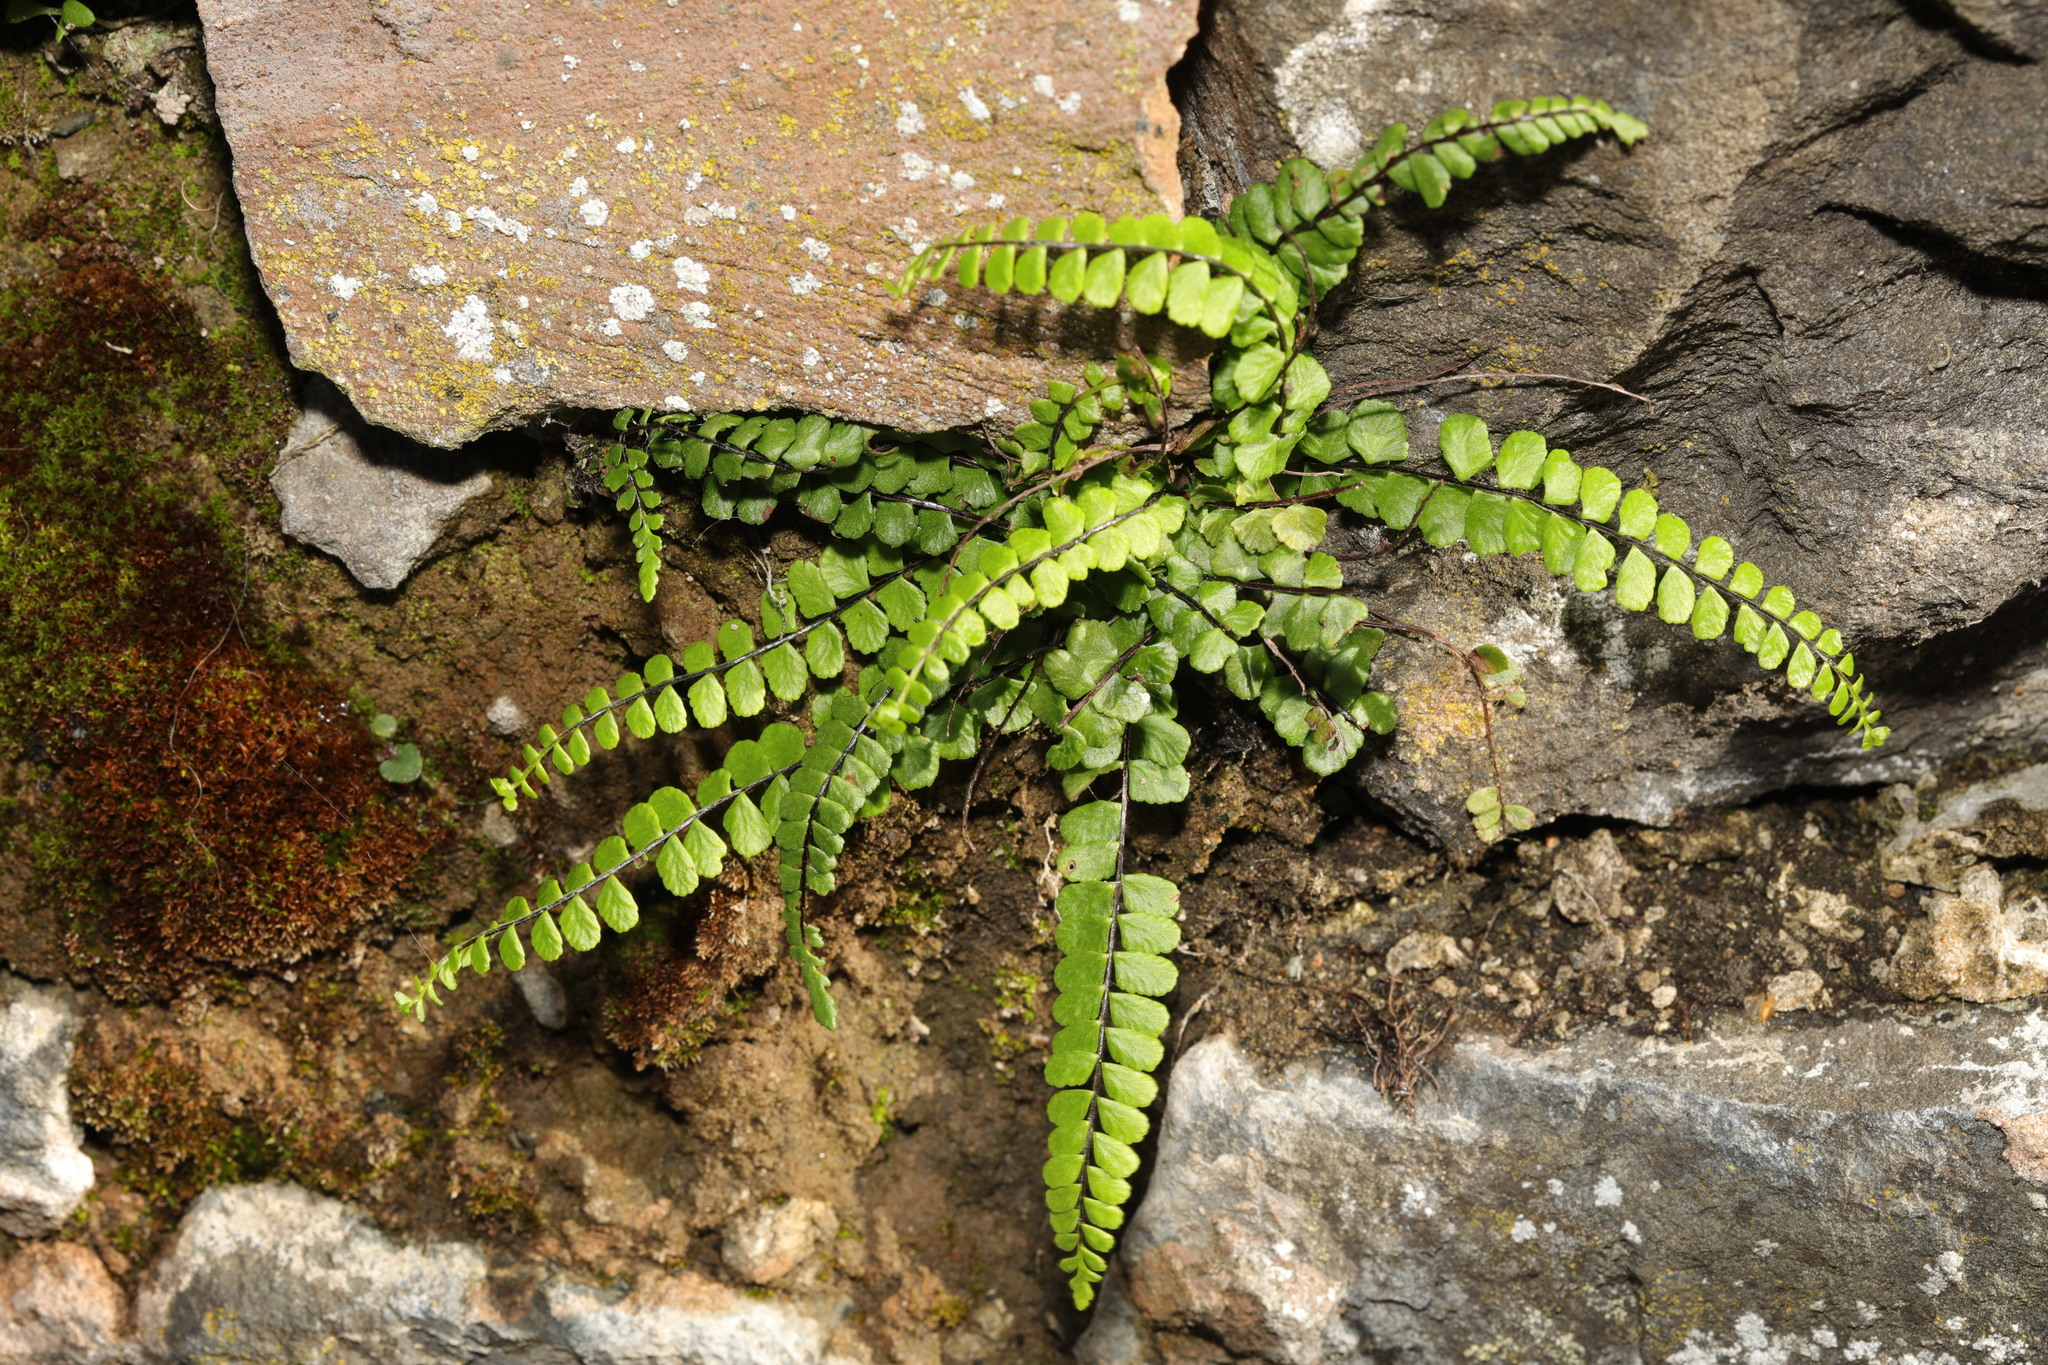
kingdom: Plantae
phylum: Tracheophyta
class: Polypodiopsida
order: Polypodiales
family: Aspleniaceae
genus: Asplenium
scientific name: Asplenium trichomanes
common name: Maidenhair spleenwort
